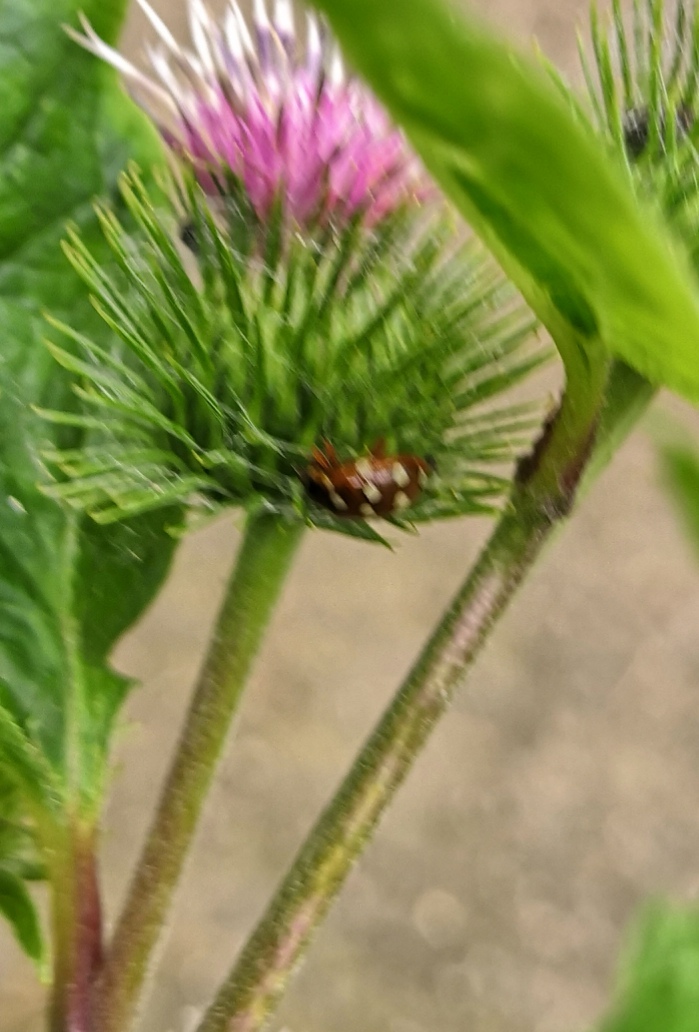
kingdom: Animalia
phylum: Arthropoda
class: Insecta
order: Coleoptera
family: Coccinellidae
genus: Calvia
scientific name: Calvia quatuordecimguttata
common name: Cream-spot ladybird
